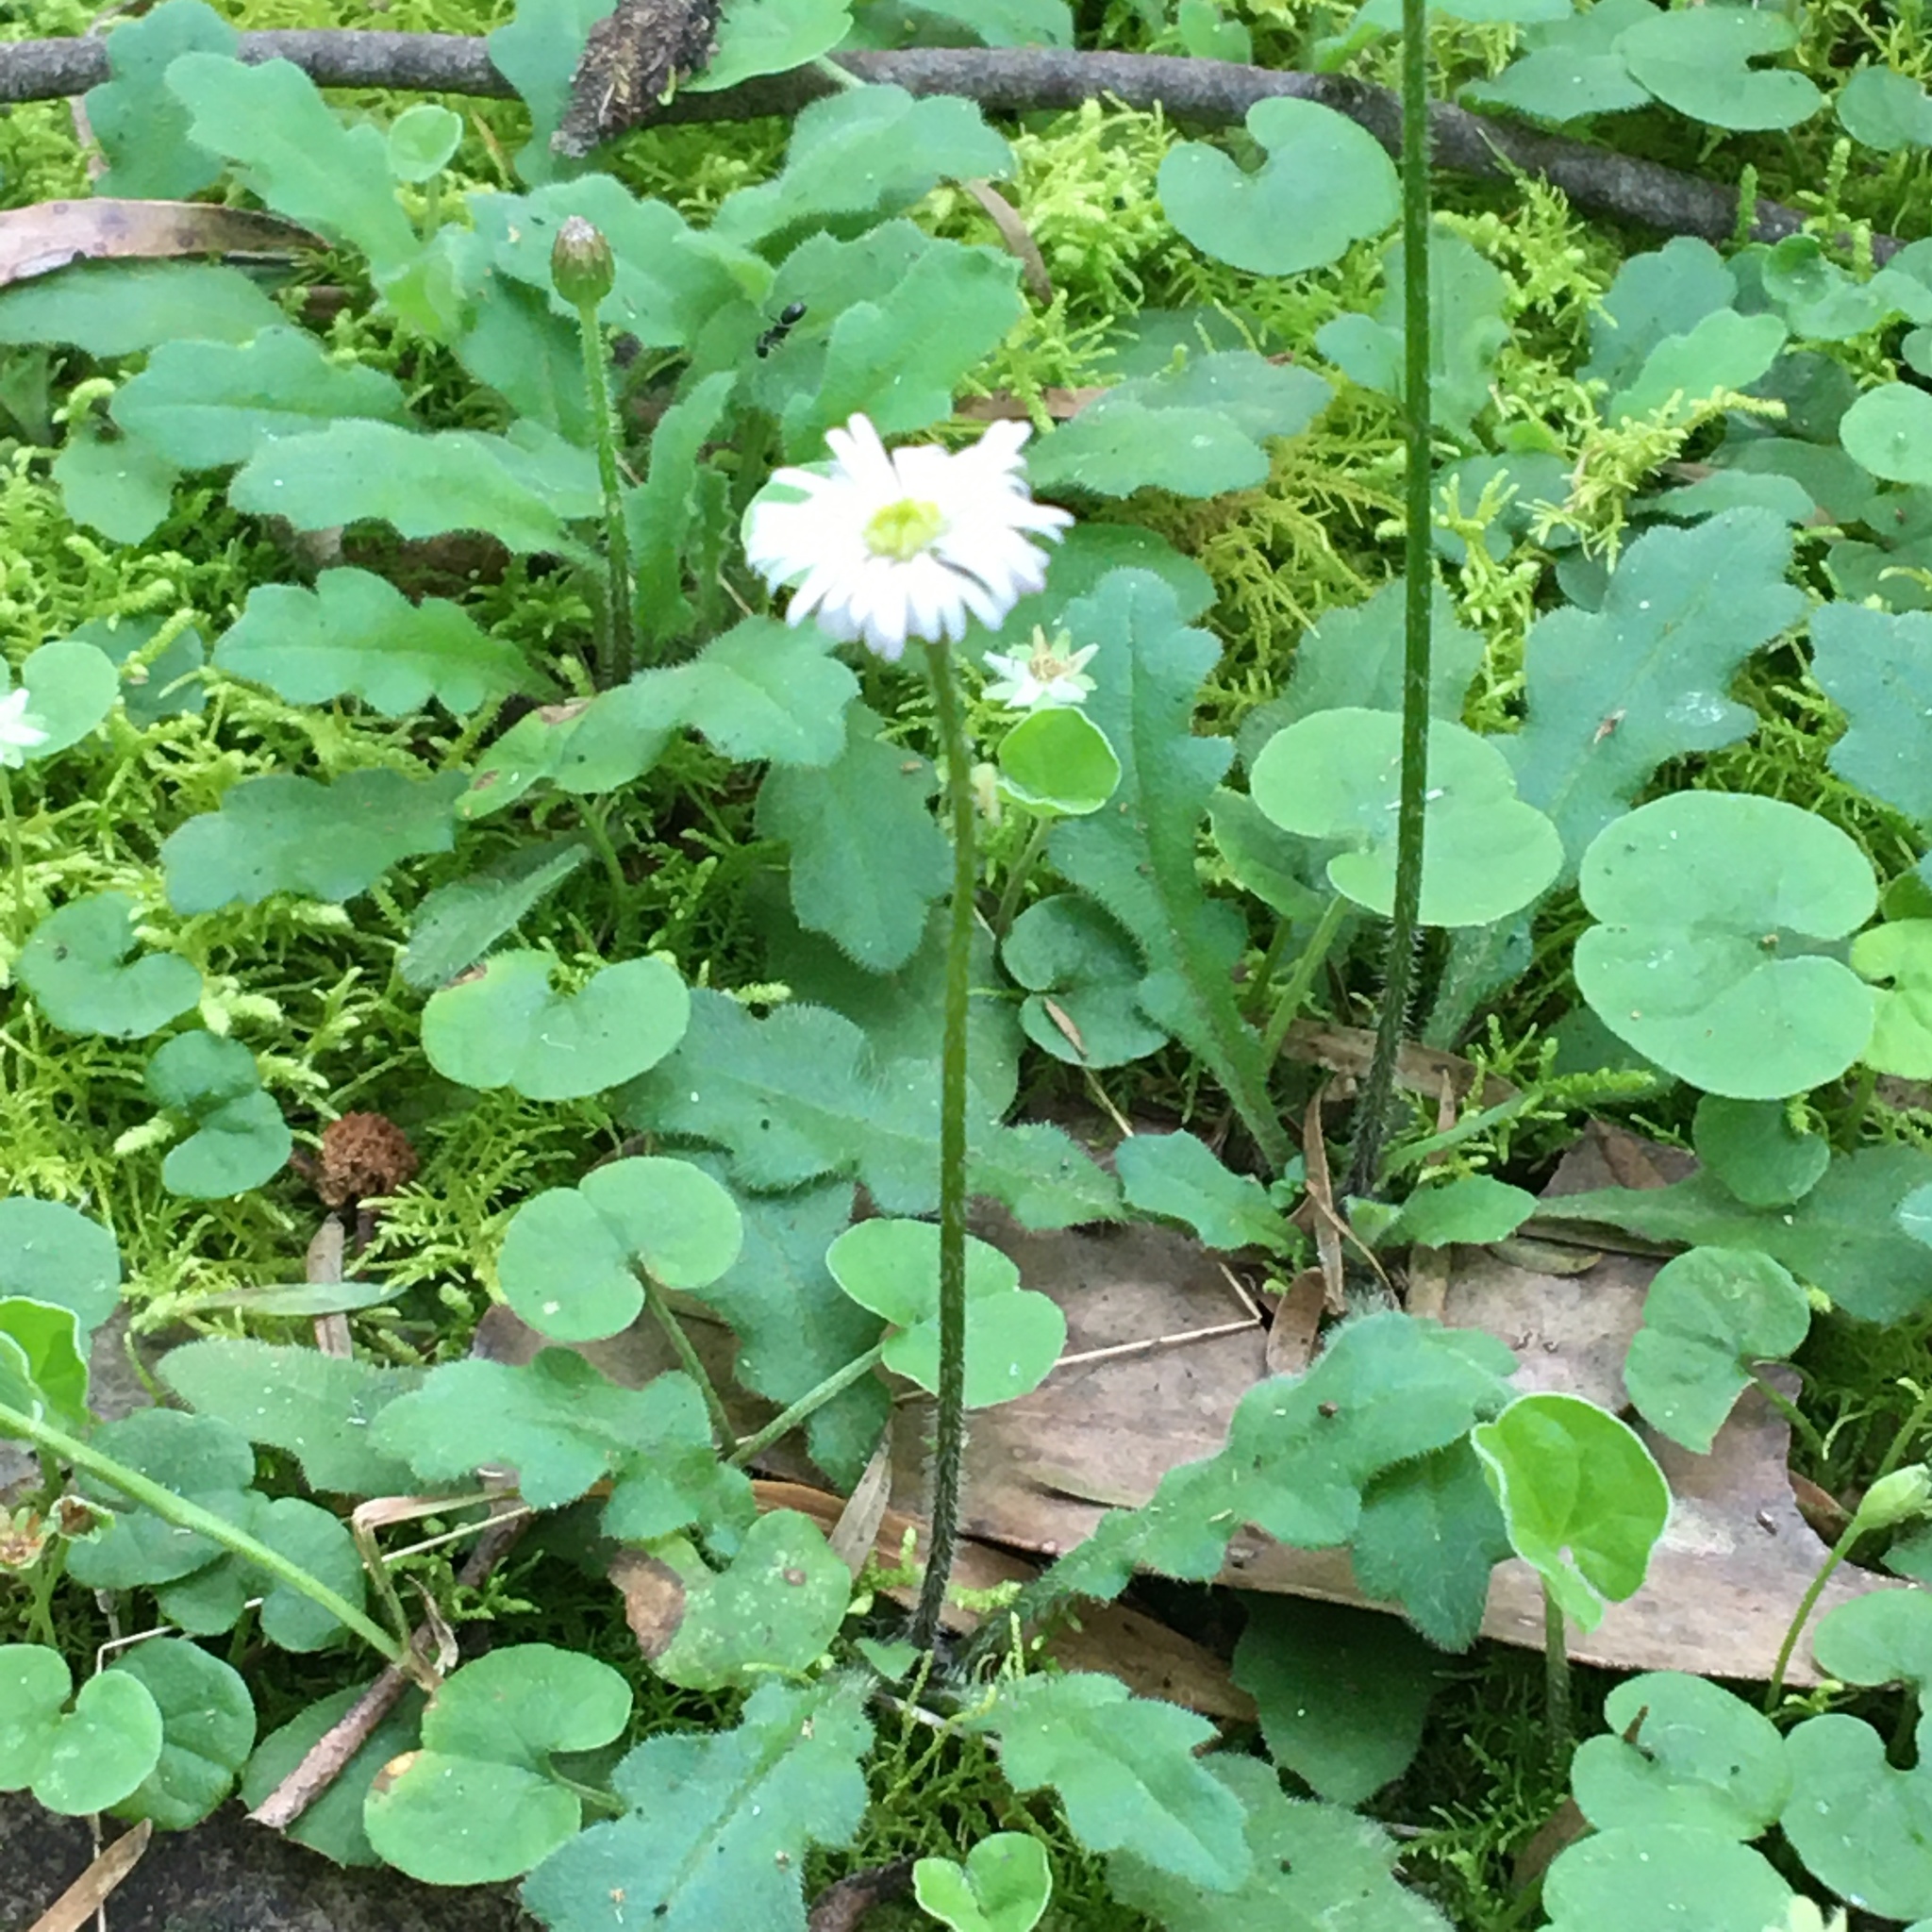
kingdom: Plantae
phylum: Tracheophyta
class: Magnoliopsida
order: Asterales
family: Asteraceae
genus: Lagenophora
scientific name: Lagenophora stipitata
